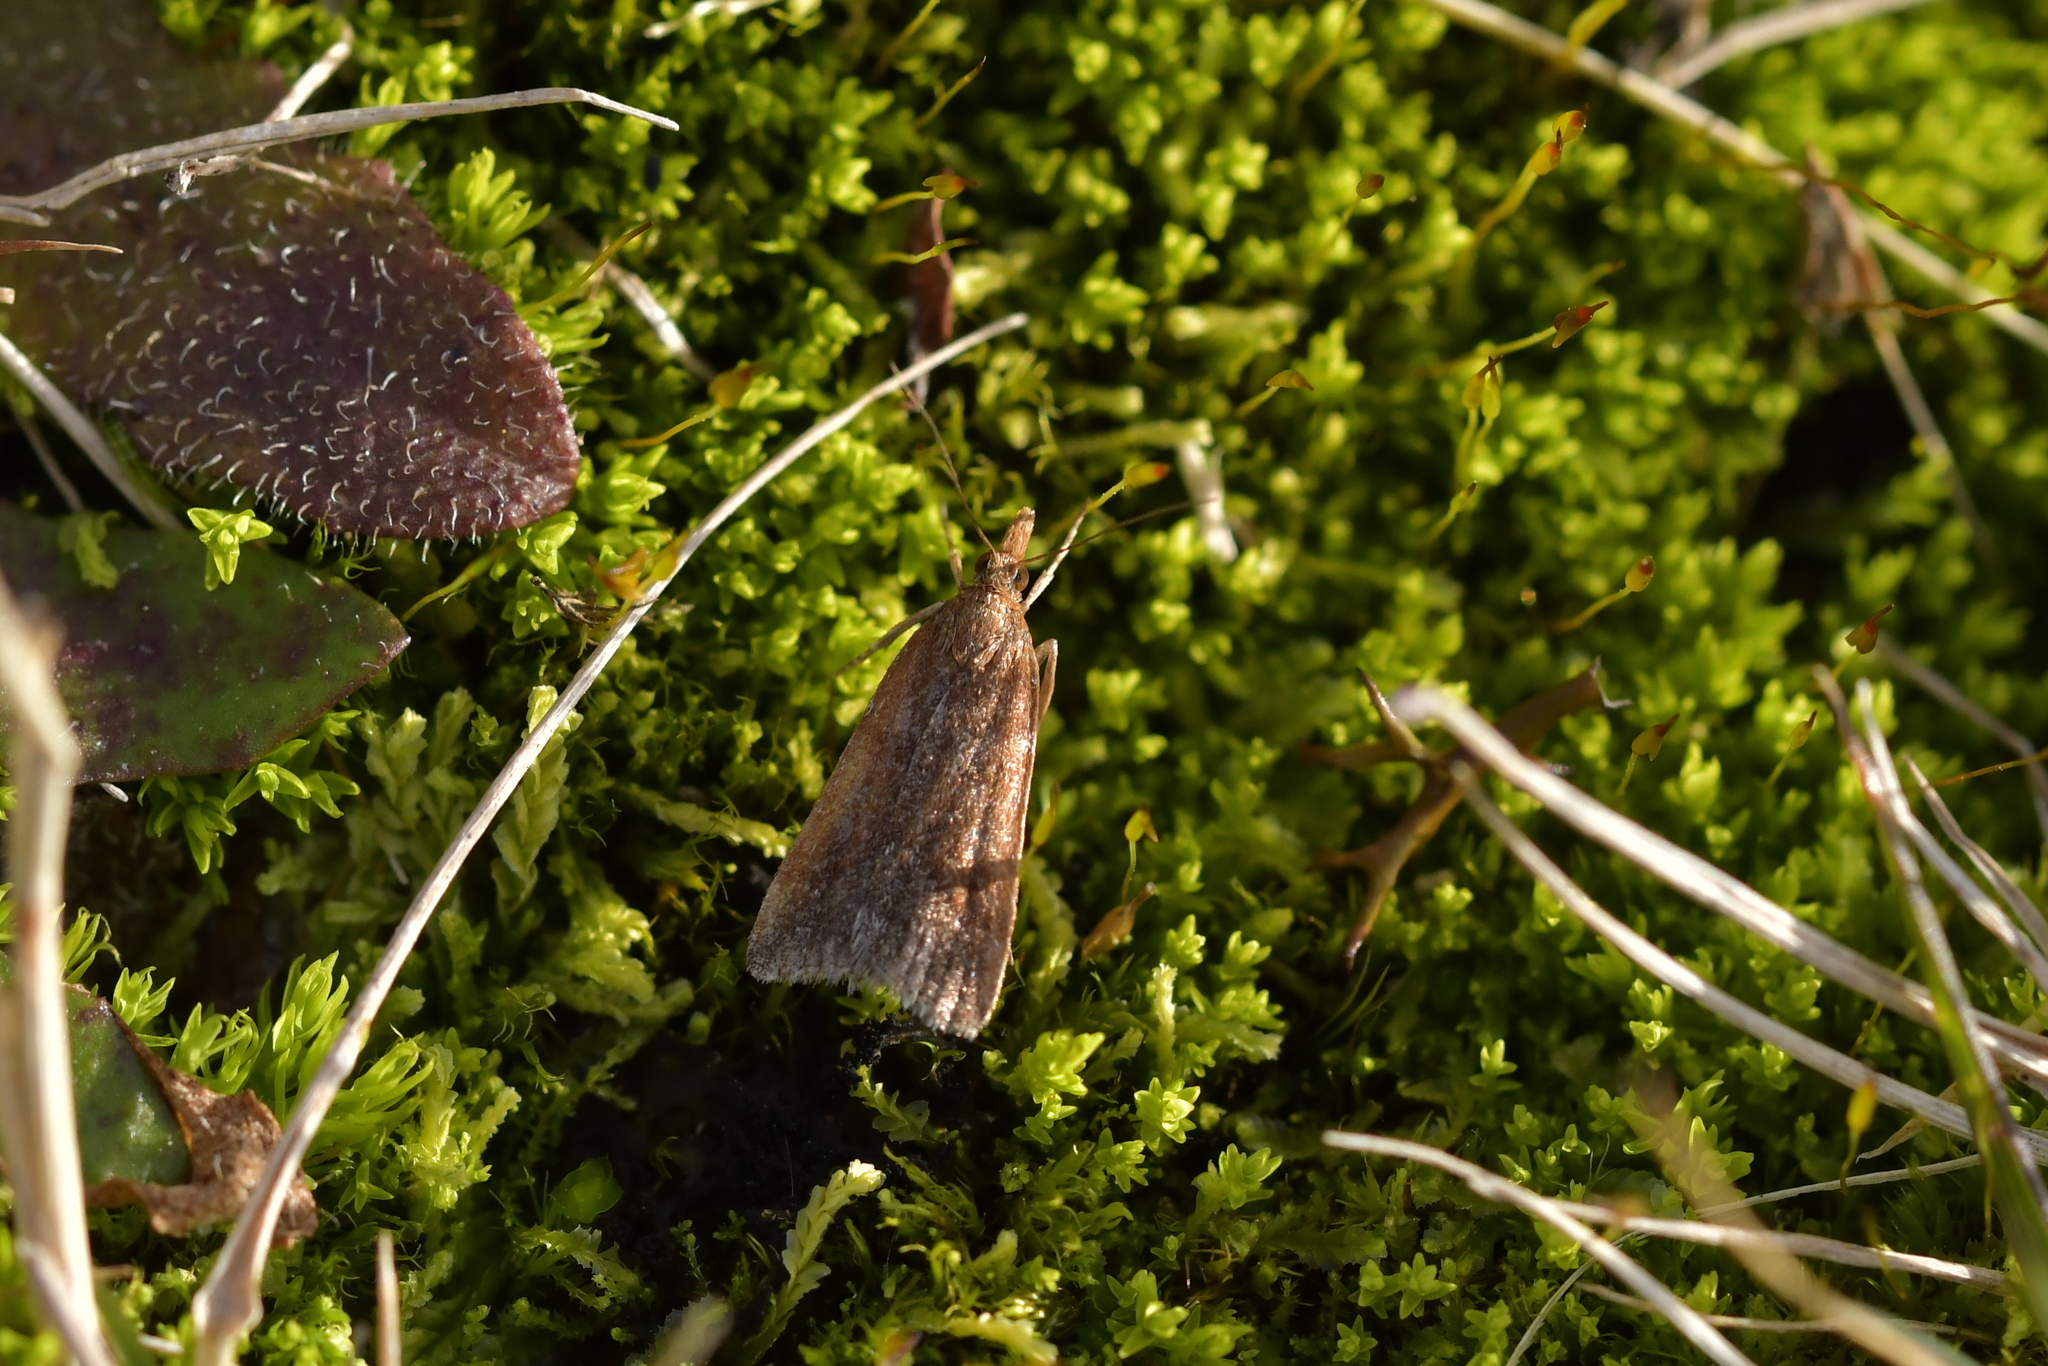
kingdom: Animalia
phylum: Arthropoda
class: Insecta
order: Lepidoptera
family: Crambidae
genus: Eudonia
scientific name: Eudonia feredayi
